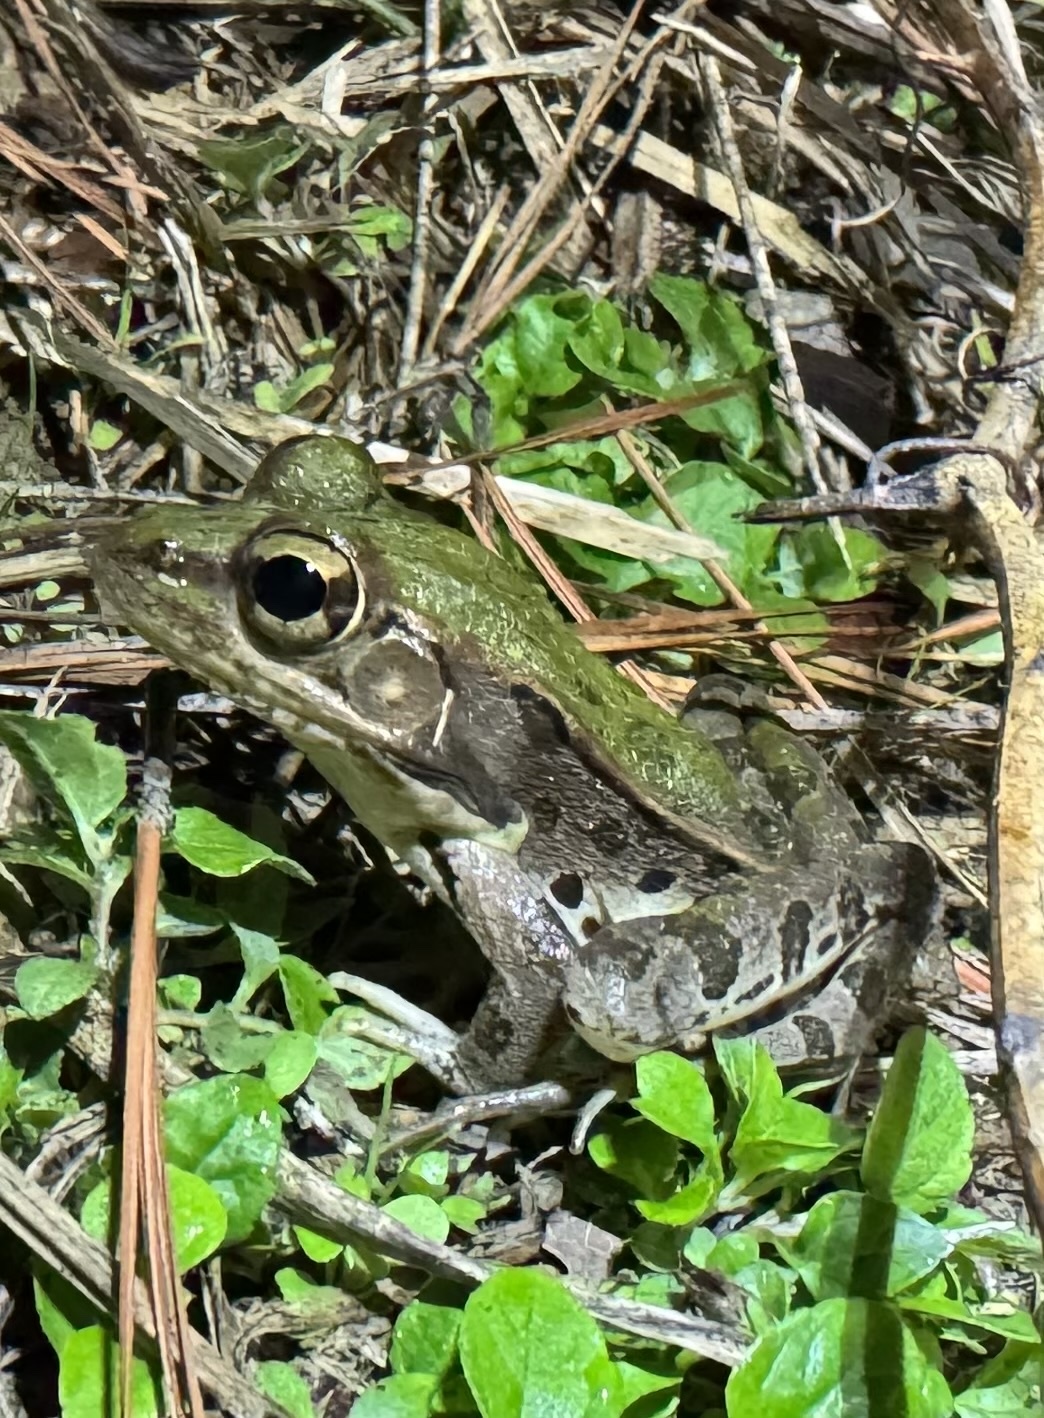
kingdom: Animalia
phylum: Chordata
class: Amphibia
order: Anura
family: Ranidae
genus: Lithobates
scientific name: Lithobates sphenocephalus
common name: Southern leopard frog
